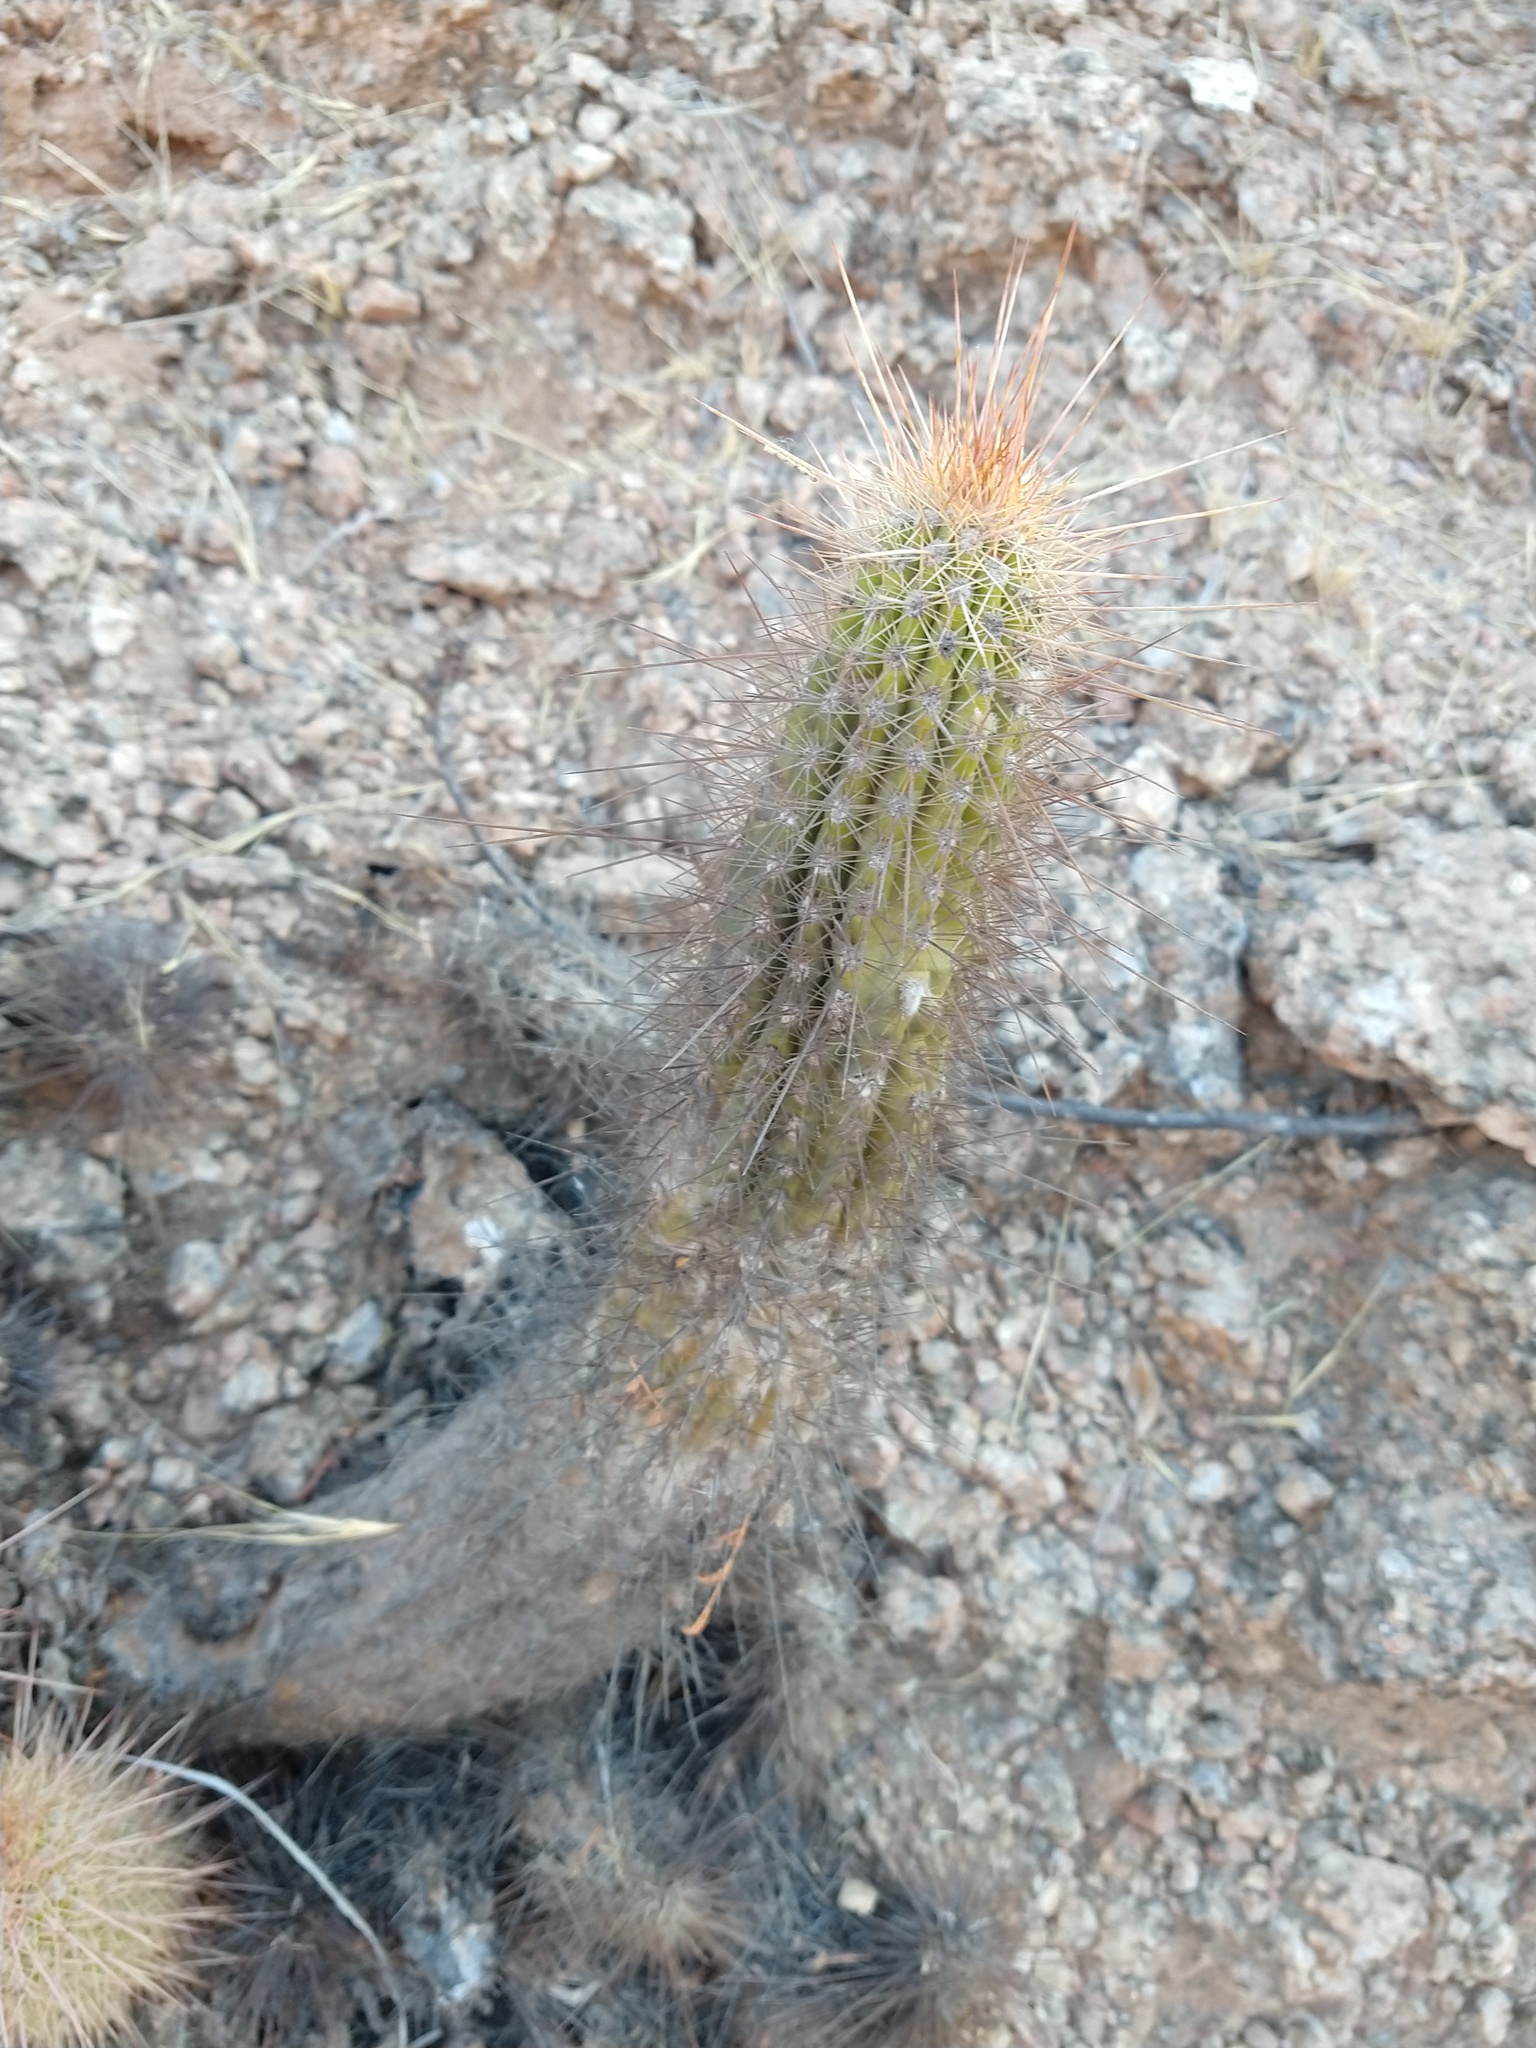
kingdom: Plantae
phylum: Tracheophyta
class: Magnoliopsida
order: Caryophyllales
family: Cactaceae
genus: Soehrensia
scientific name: Soehrensia strigosa
